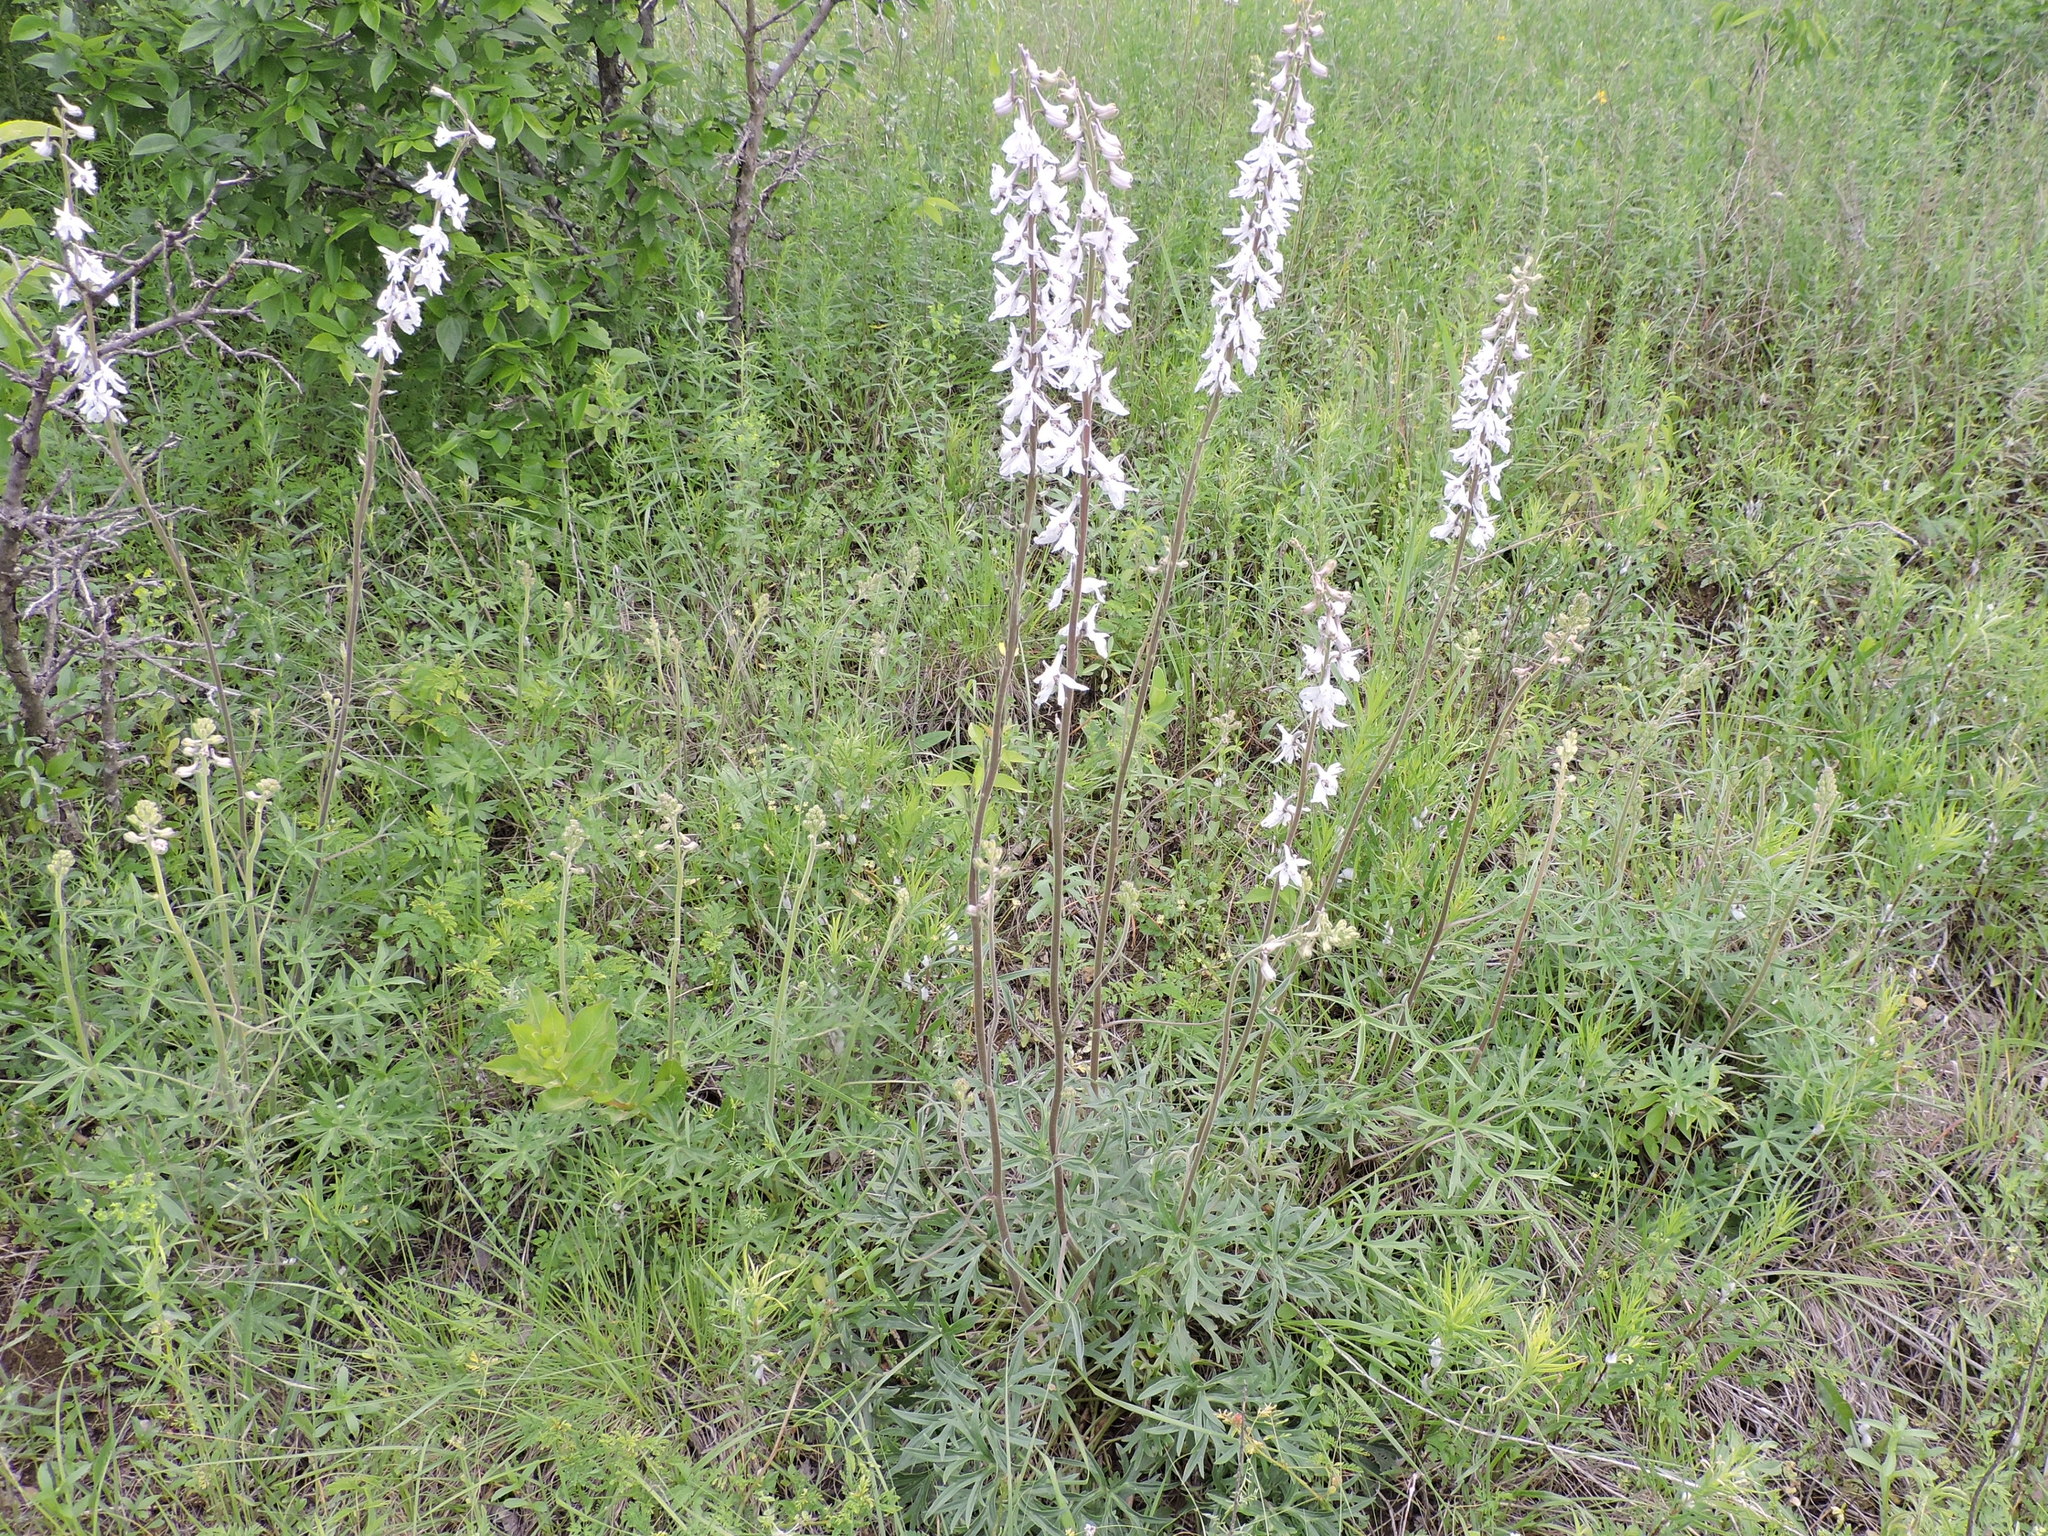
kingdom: Plantae
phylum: Tracheophyta
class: Magnoliopsida
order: Ranunculales
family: Ranunculaceae
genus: Delphinium
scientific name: Delphinium carolinianum
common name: Carolina larkspur
